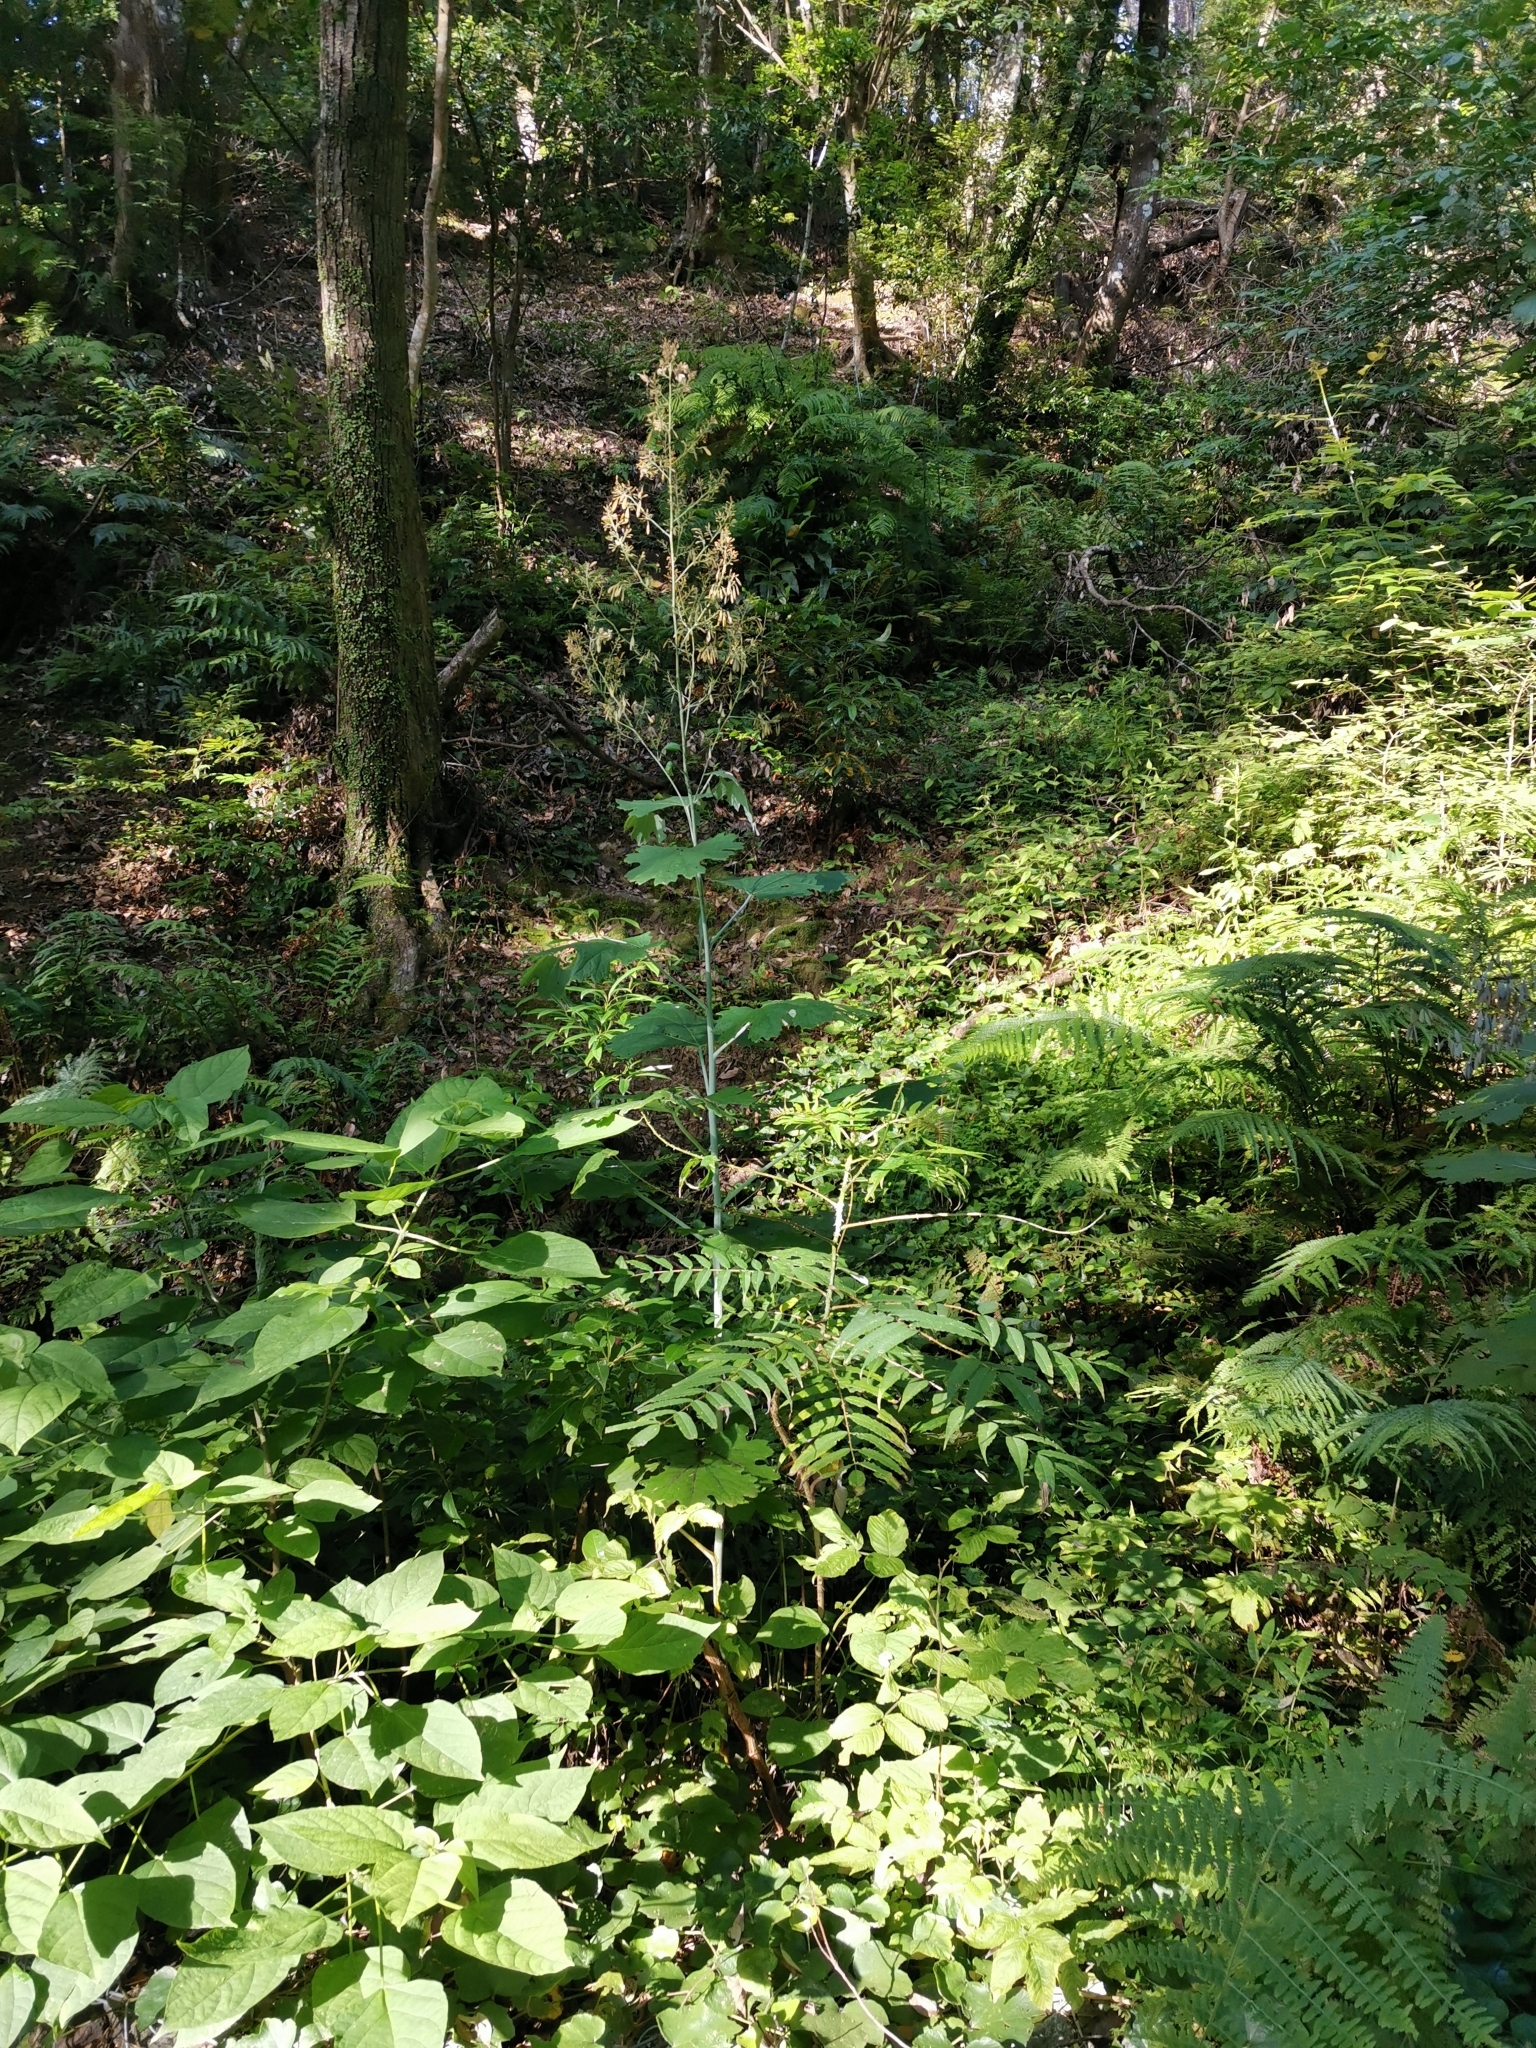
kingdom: Plantae
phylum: Tracheophyta
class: Magnoliopsida
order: Ranunculales
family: Papaveraceae
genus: Macleaya
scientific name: Macleaya cordata
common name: Plume poppy
